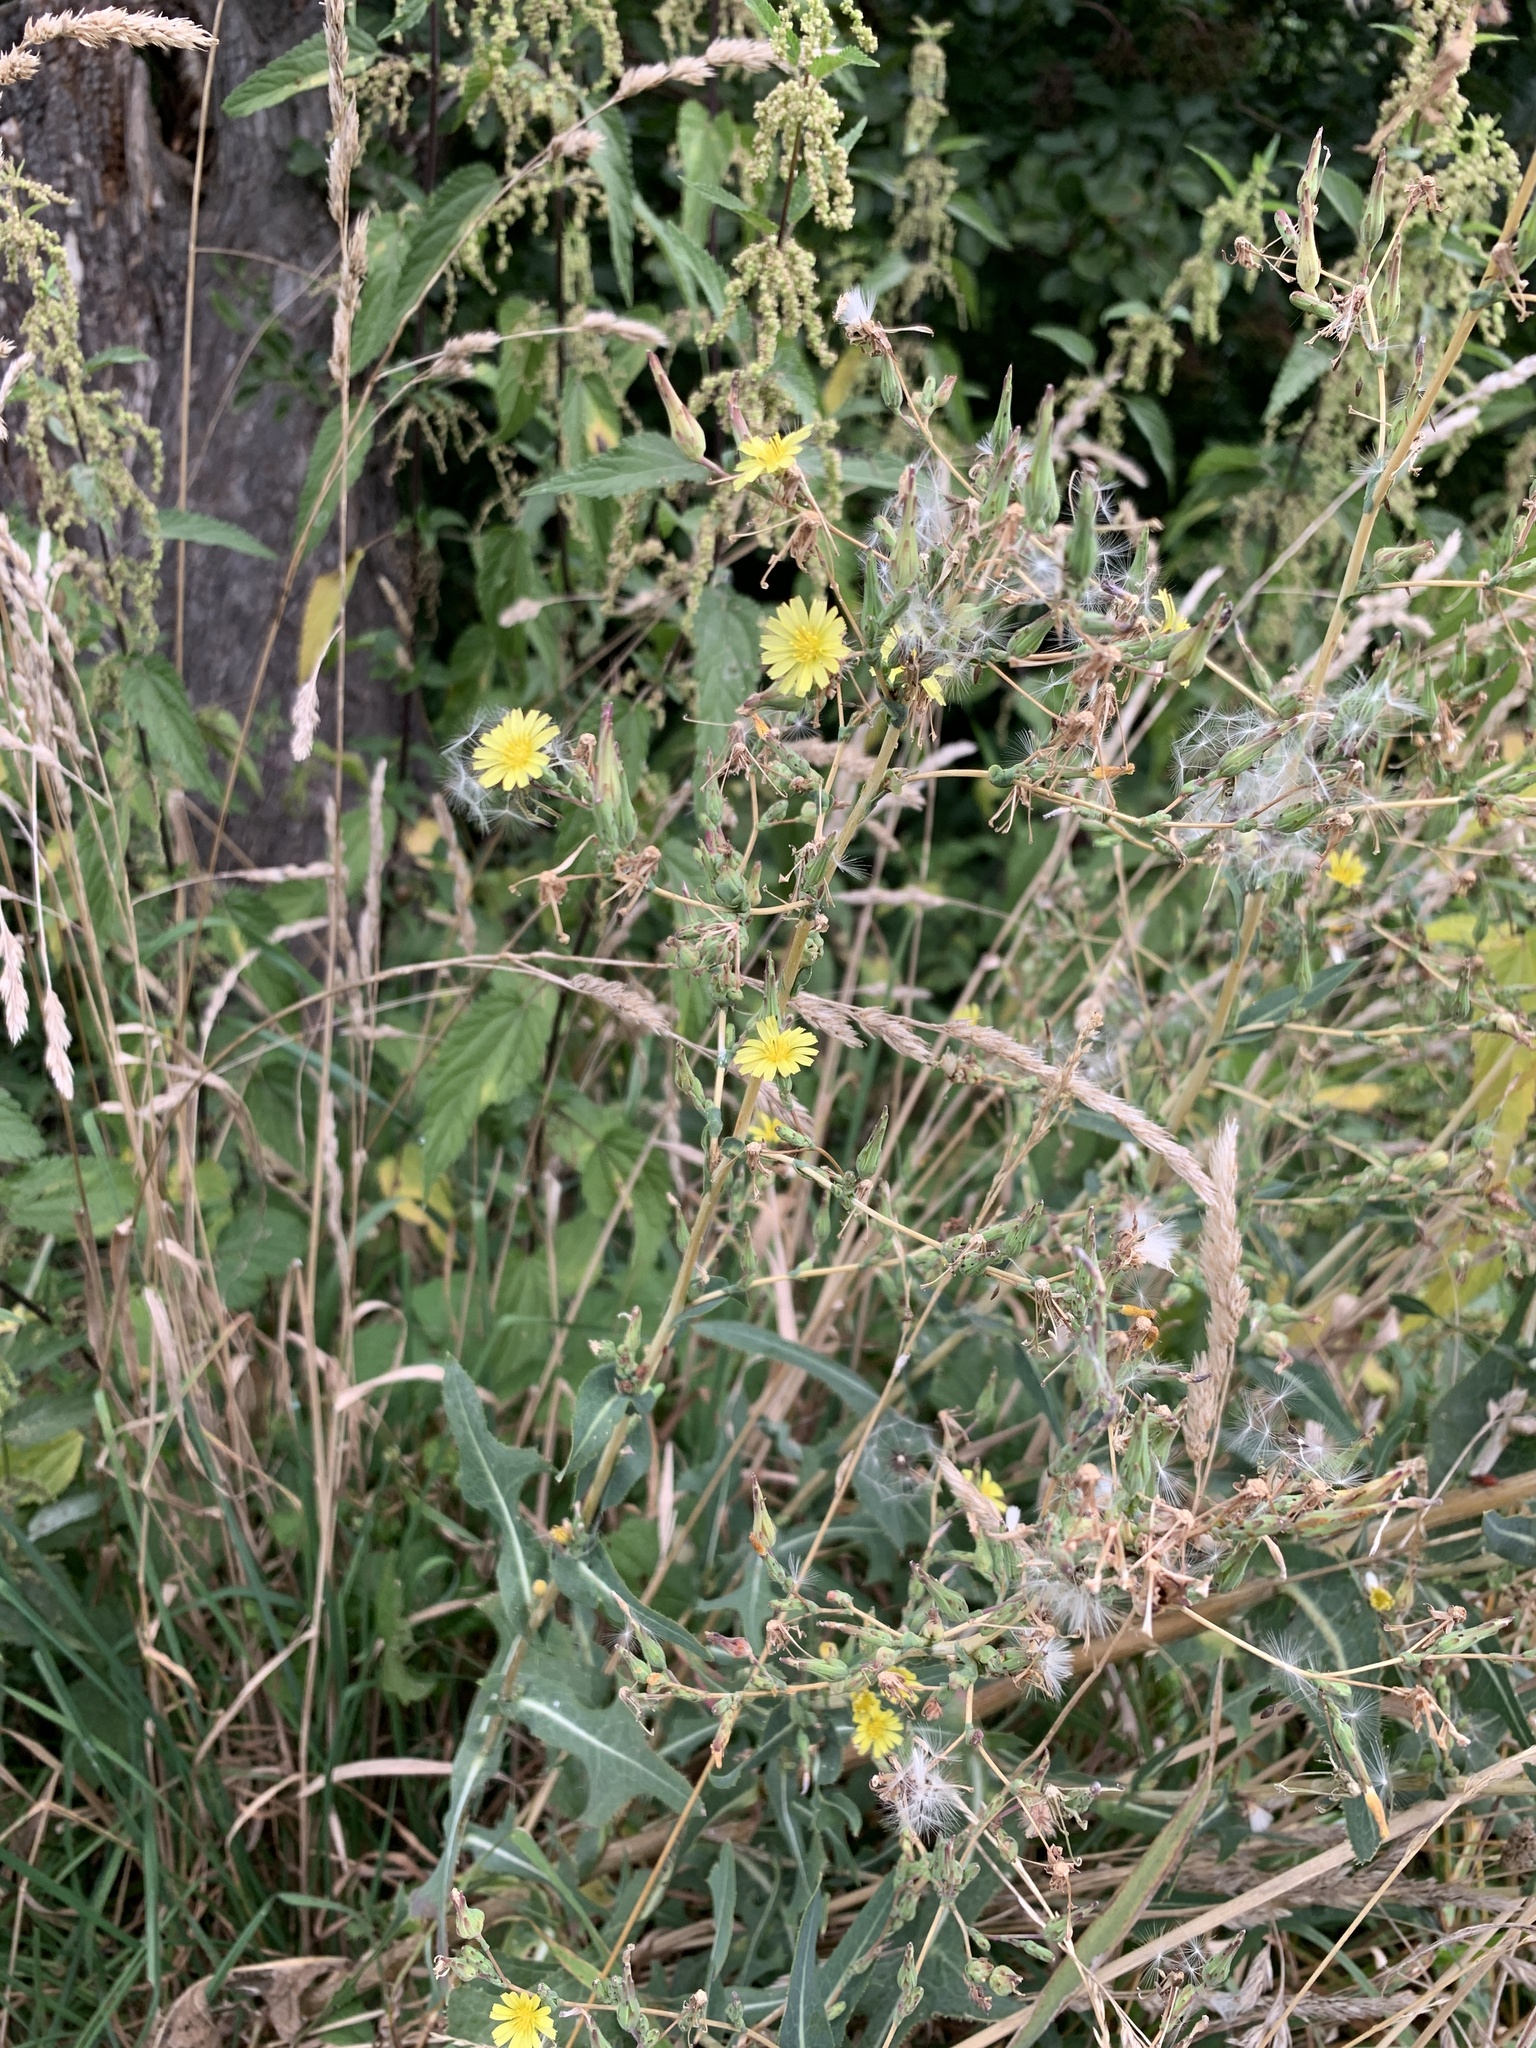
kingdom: Plantae
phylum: Tracheophyta
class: Magnoliopsida
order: Asterales
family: Asteraceae
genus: Lactuca
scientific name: Lactuca serriola
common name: Prickly lettuce
